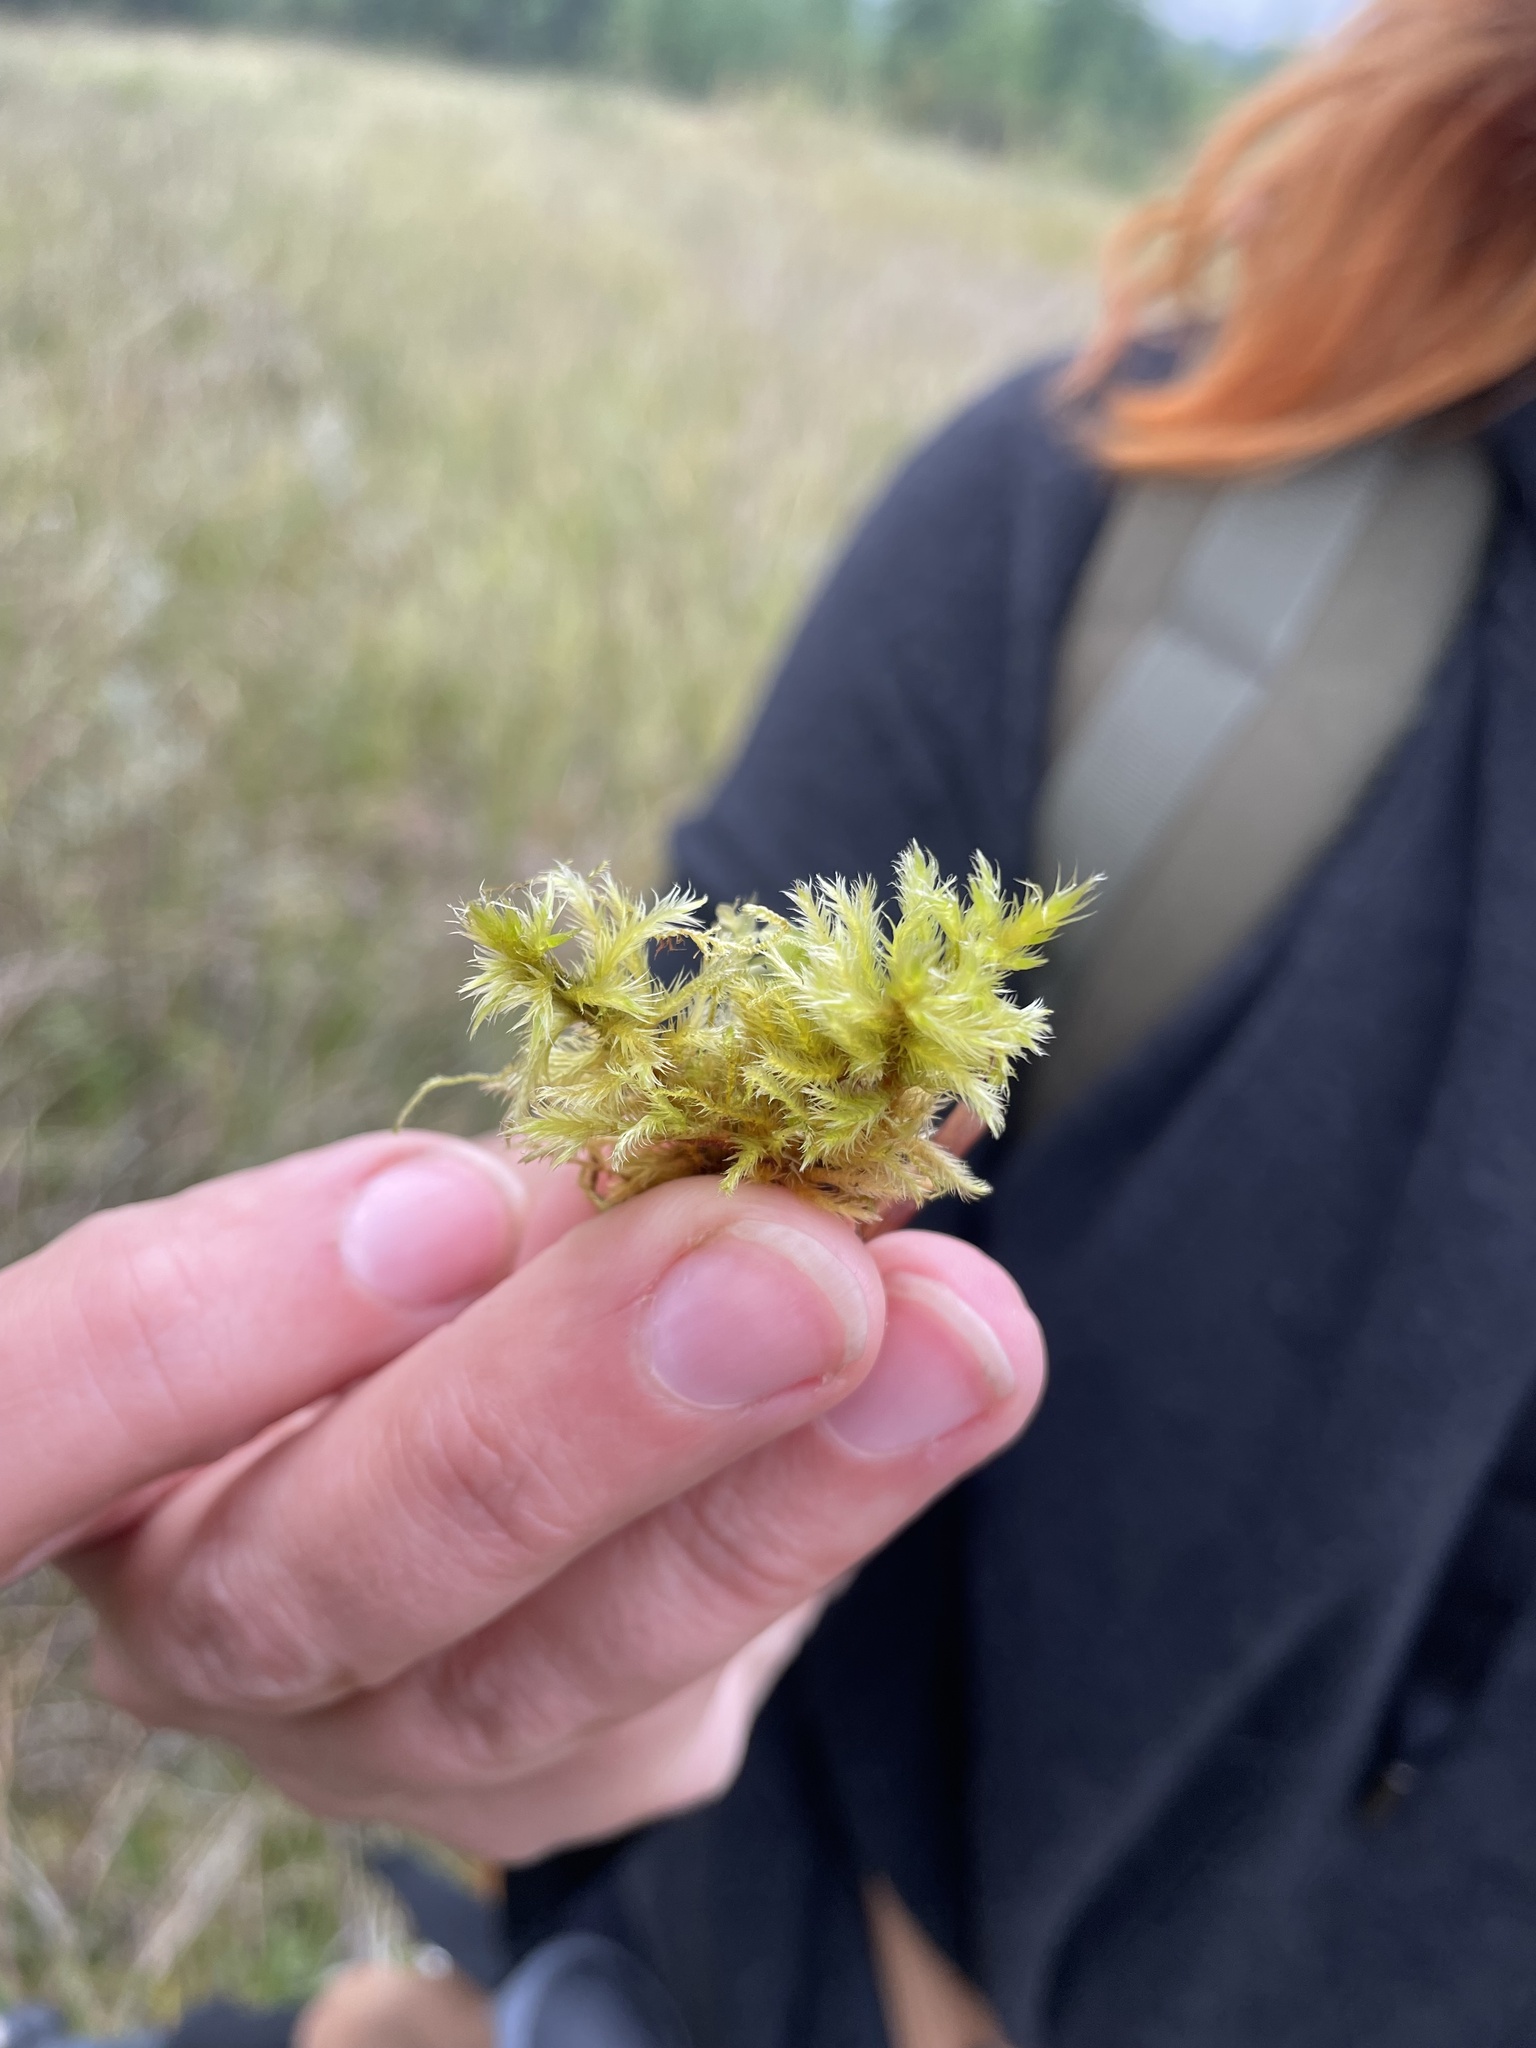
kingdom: Plantae
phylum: Bryophyta
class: Bryopsida
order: Hypnales
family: Amblystegiaceae
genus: Tomentypnum
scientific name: Tomentypnum nitens
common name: Golden fuzzy fen moss
